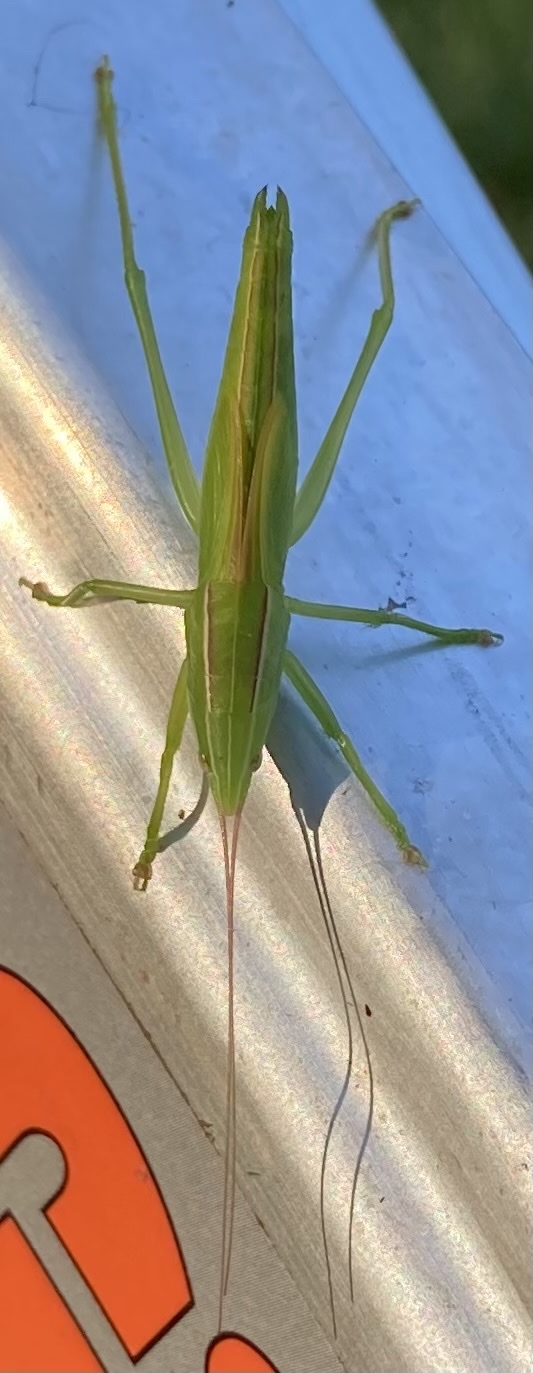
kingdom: Animalia
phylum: Arthropoda
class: Insecta
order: Orthoptera
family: Tettigoniidae
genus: Neoconocephalus
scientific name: Neoconocephalus ensiger
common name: Swordbearer
